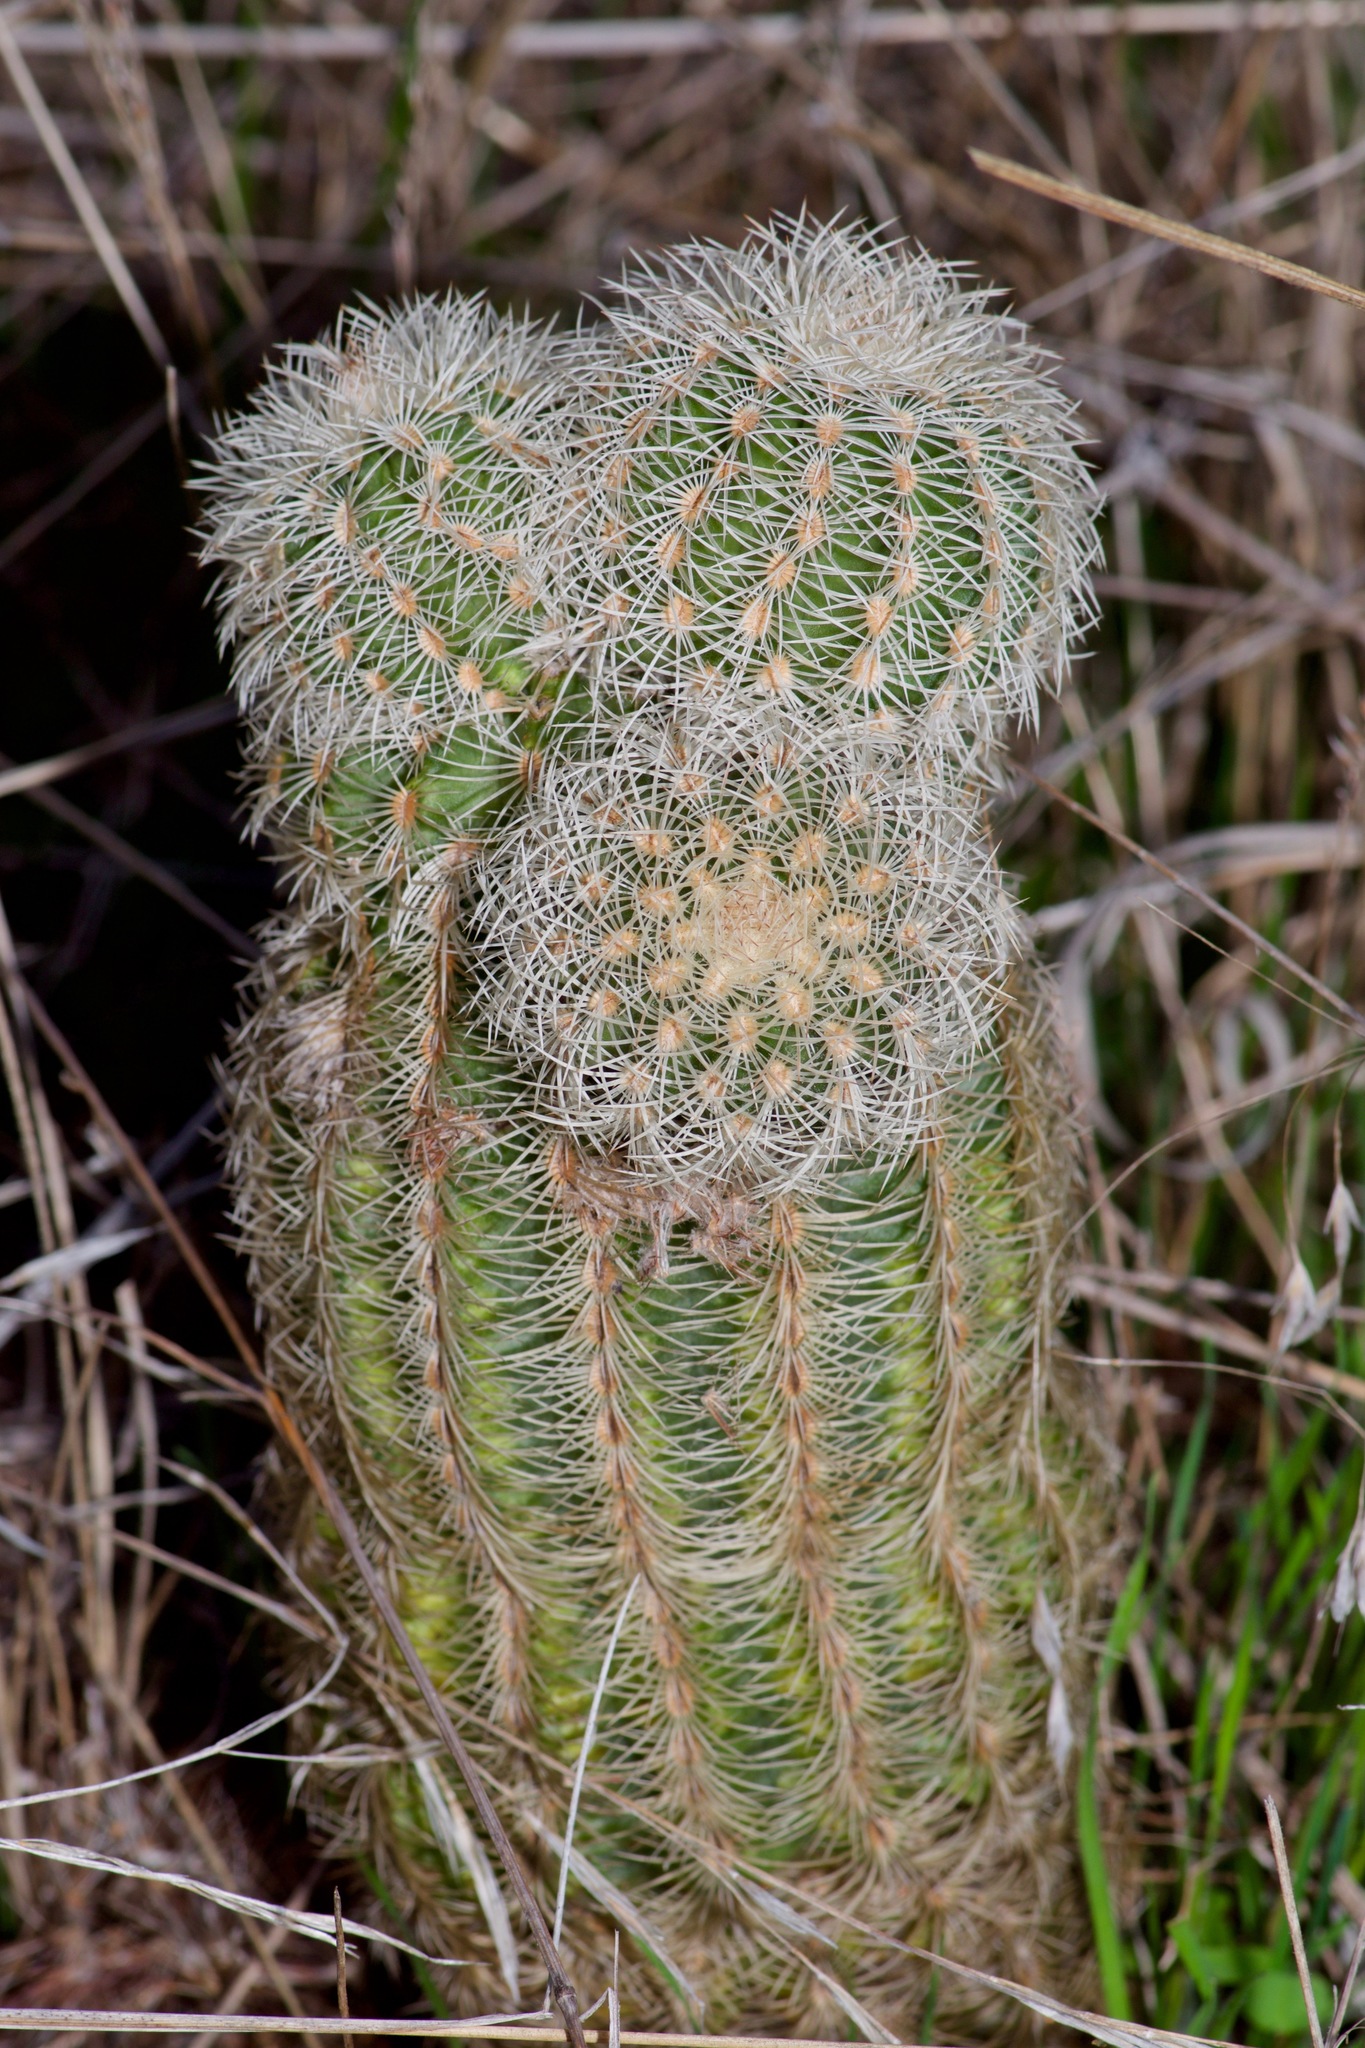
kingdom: Plantae
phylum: Tracheophyta
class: Magnoliopsida
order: Caryophyllales
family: Cactaceae
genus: Echinocereus
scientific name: Echinocereus reichenbachii
